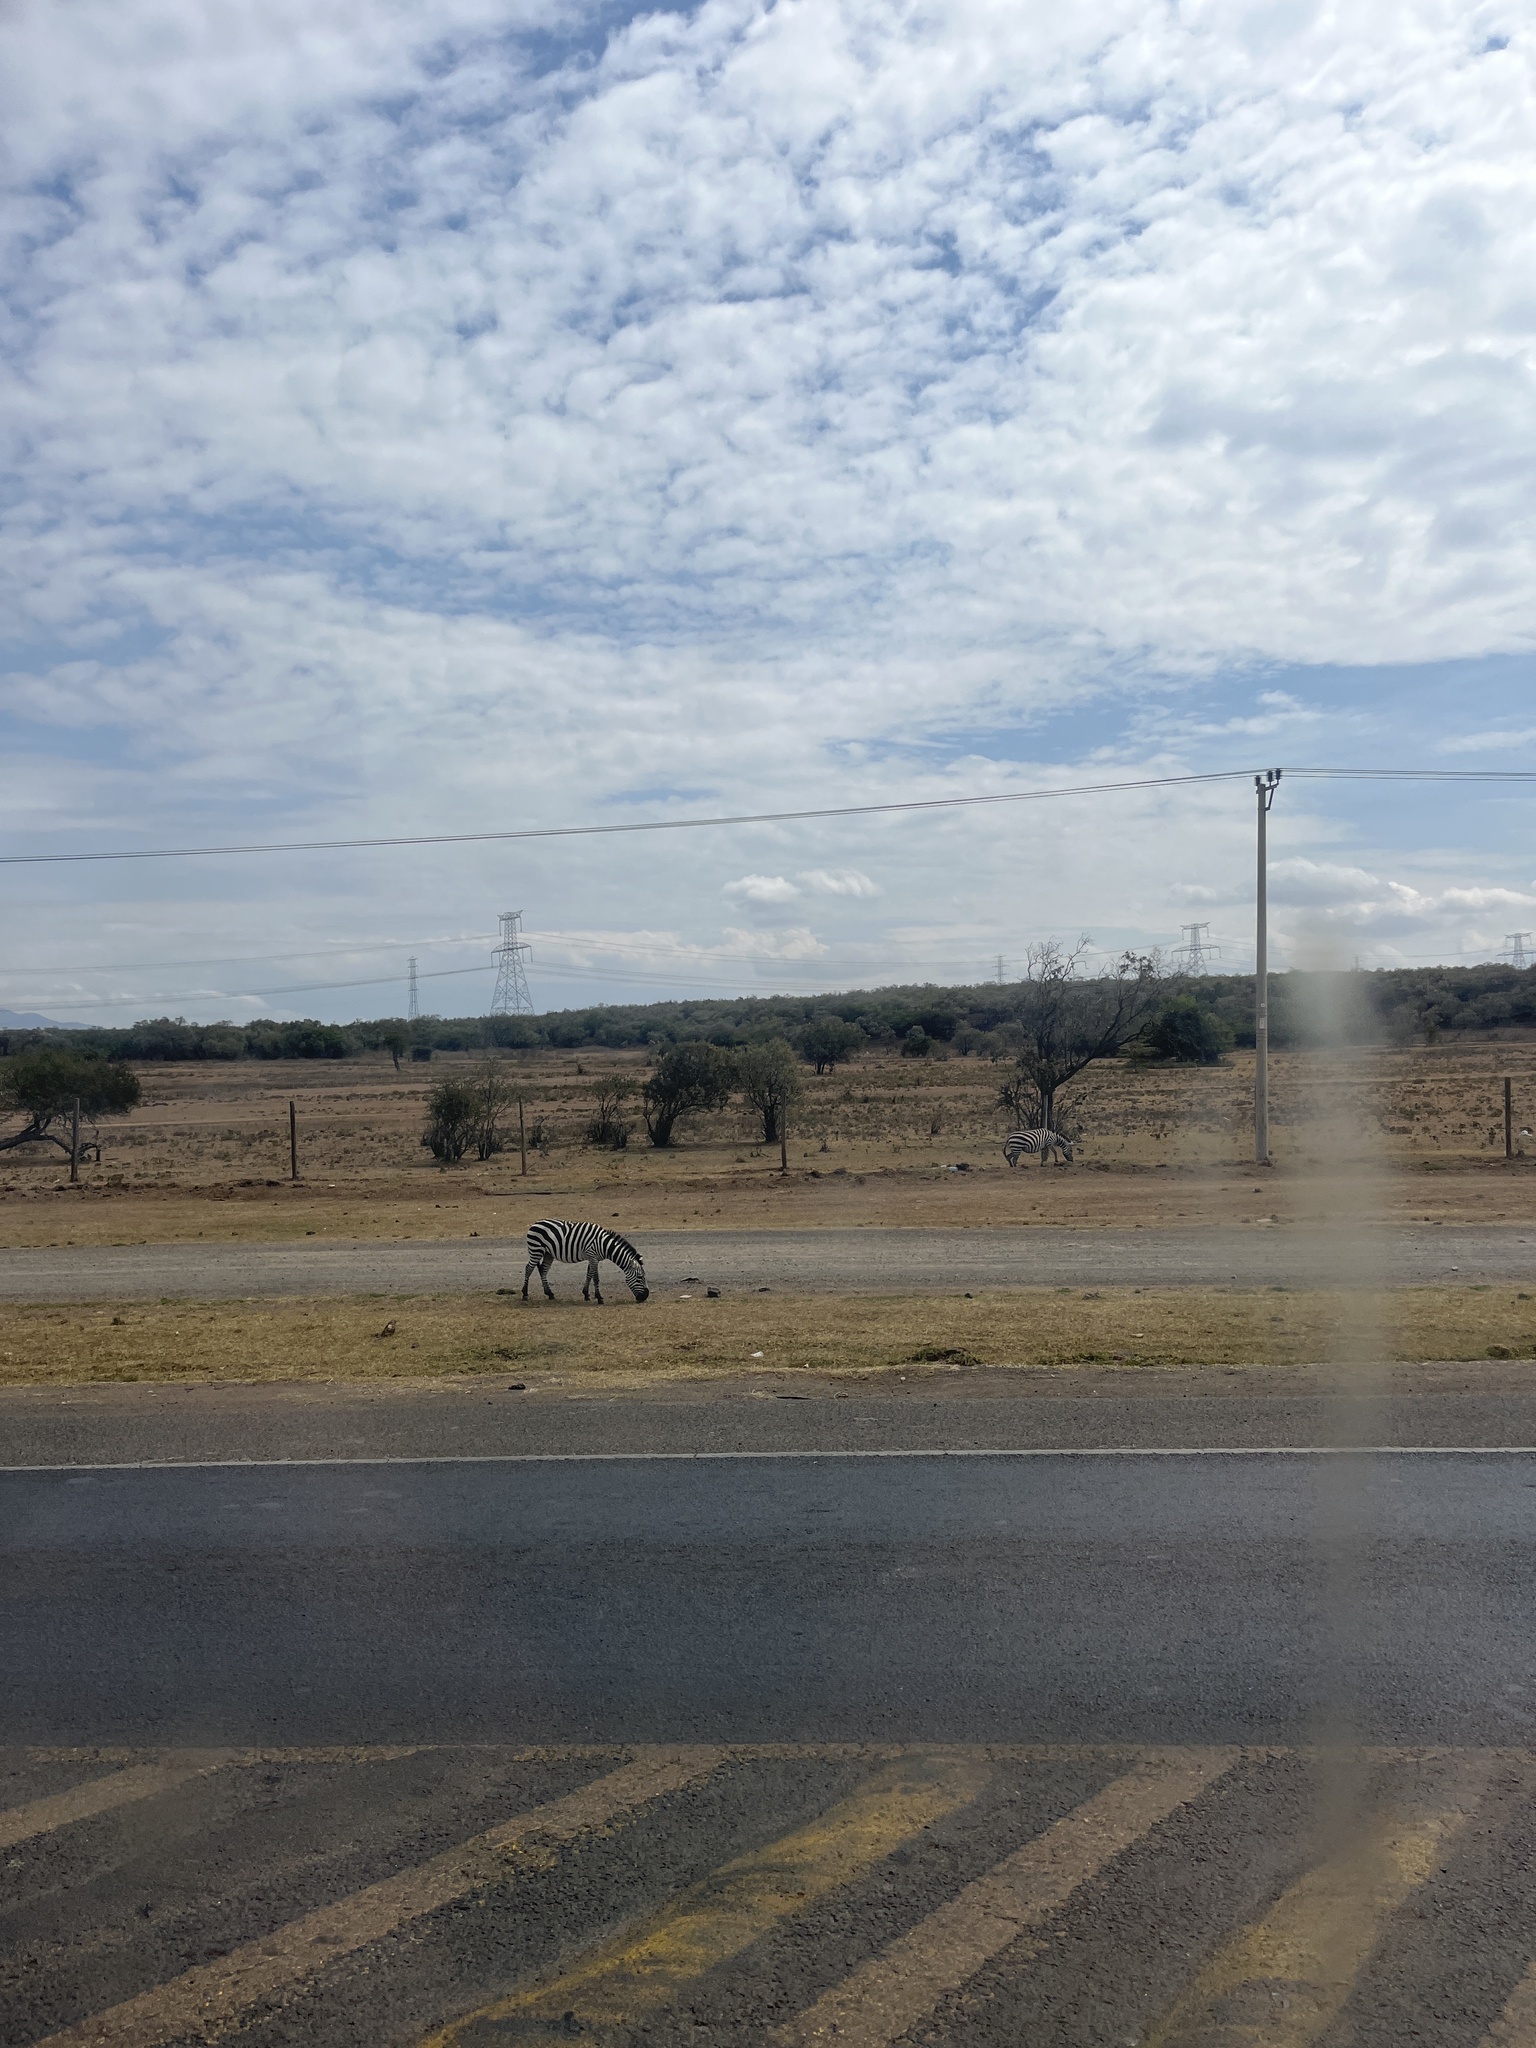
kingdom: Animalia
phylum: Chordata
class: Mammalia
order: Perissodactyla
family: Equidae
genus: Equus
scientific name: Equus quagga
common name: Plains zebra
